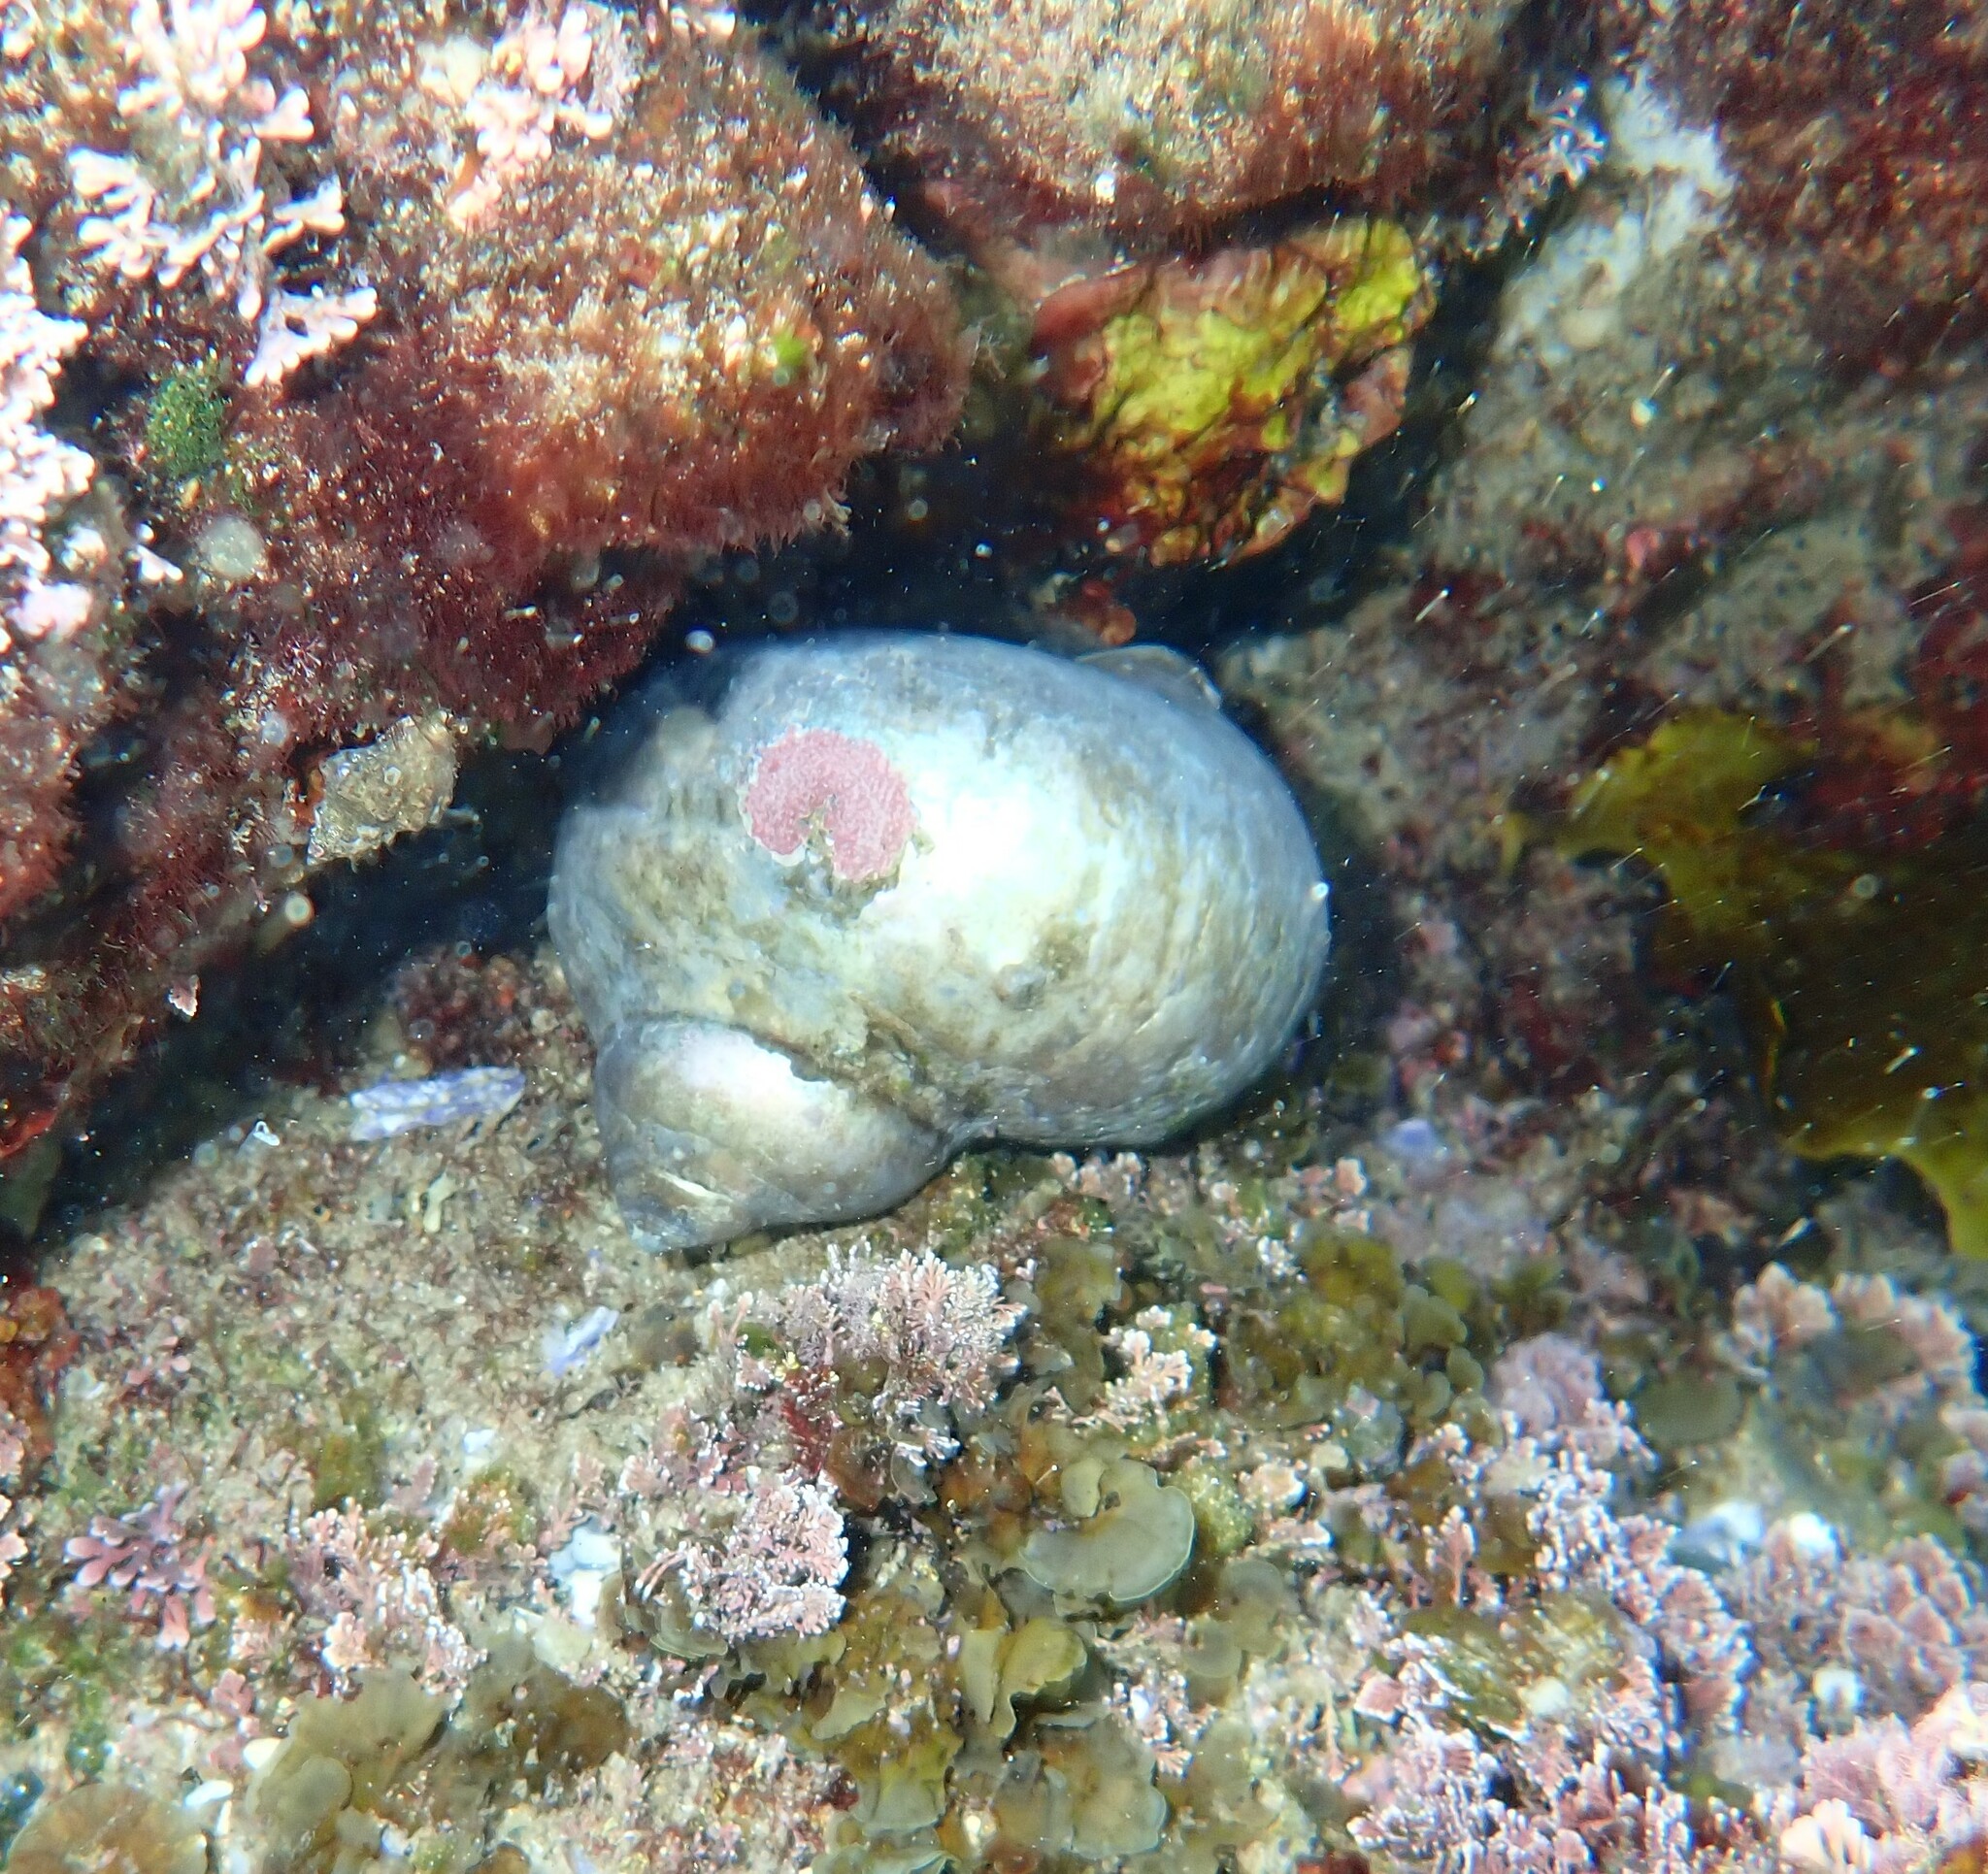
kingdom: Animalia
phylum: Mollusca
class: Gastropoda
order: Trochida
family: Turbinidae
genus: Turbo
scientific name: Turbo militaris
